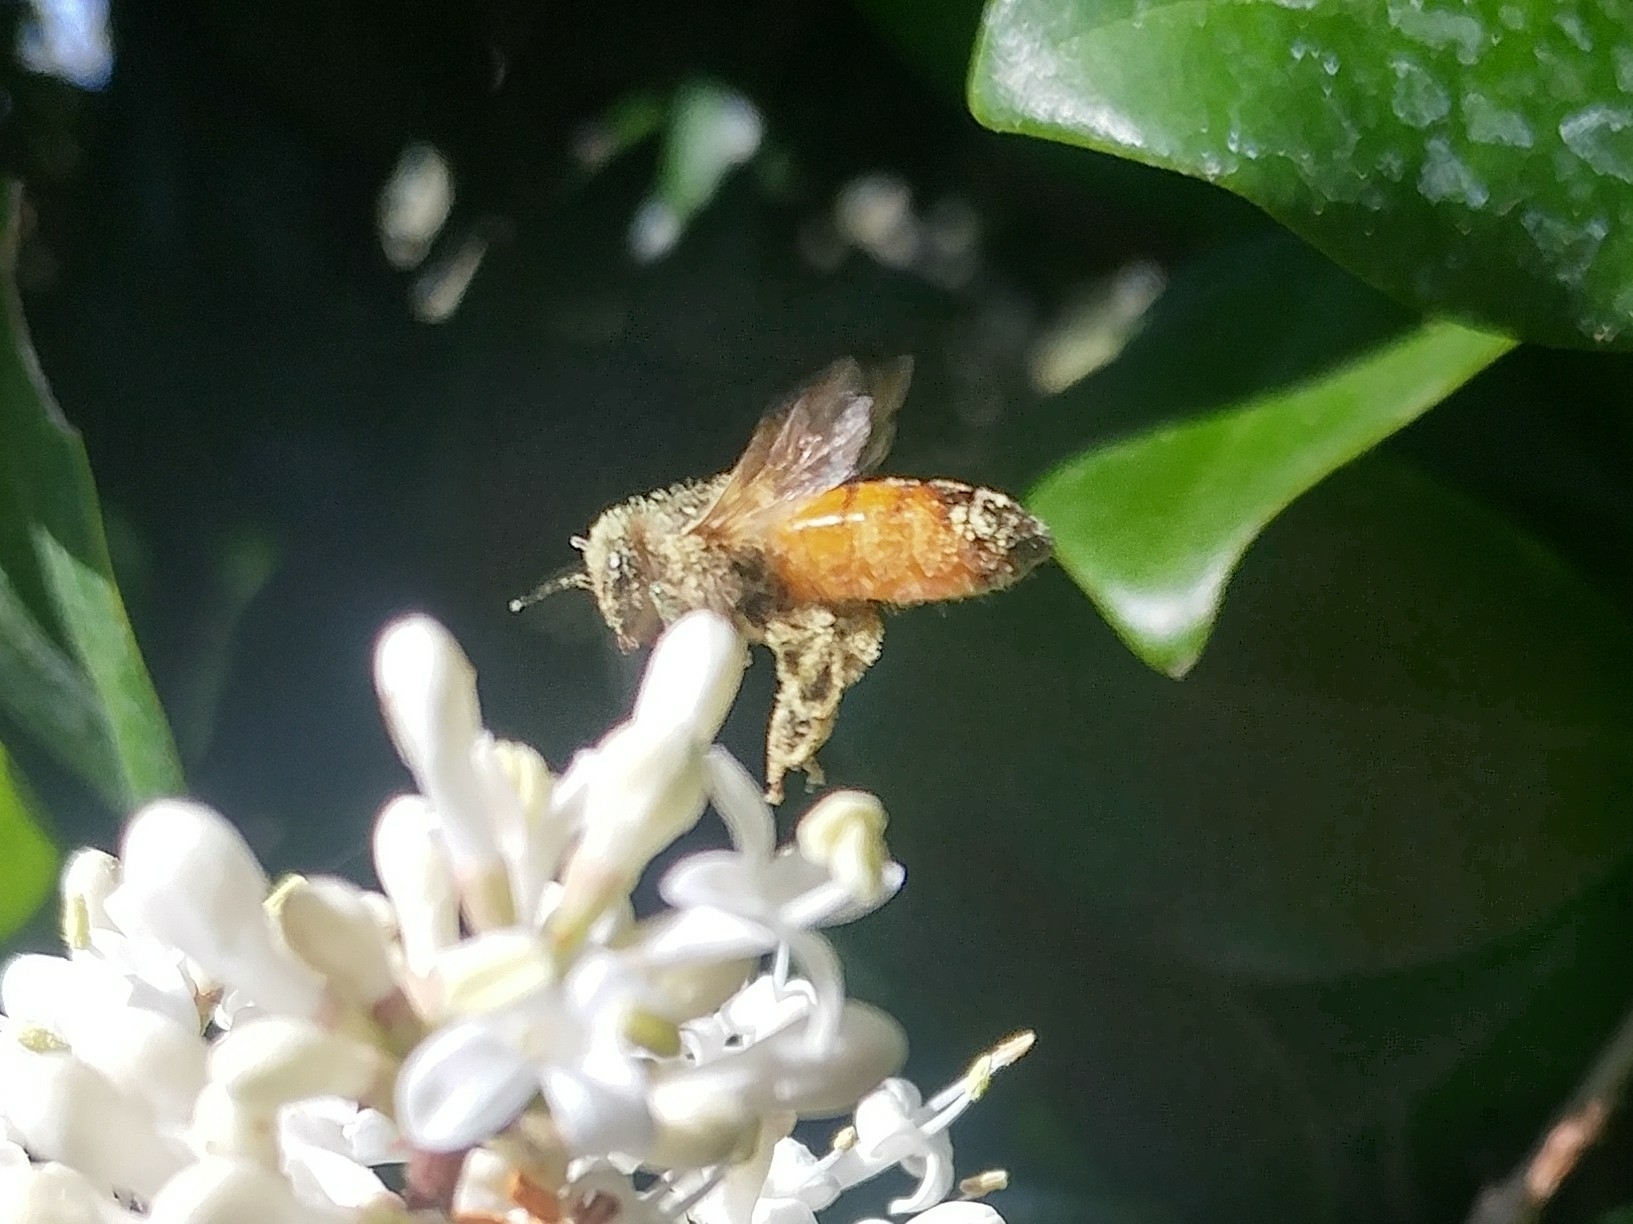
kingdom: Animalia
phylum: Arthropoda
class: Insecta
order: Hymenoptera
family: Apidae
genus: Apis
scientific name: Apis mellifera
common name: Honey bee
